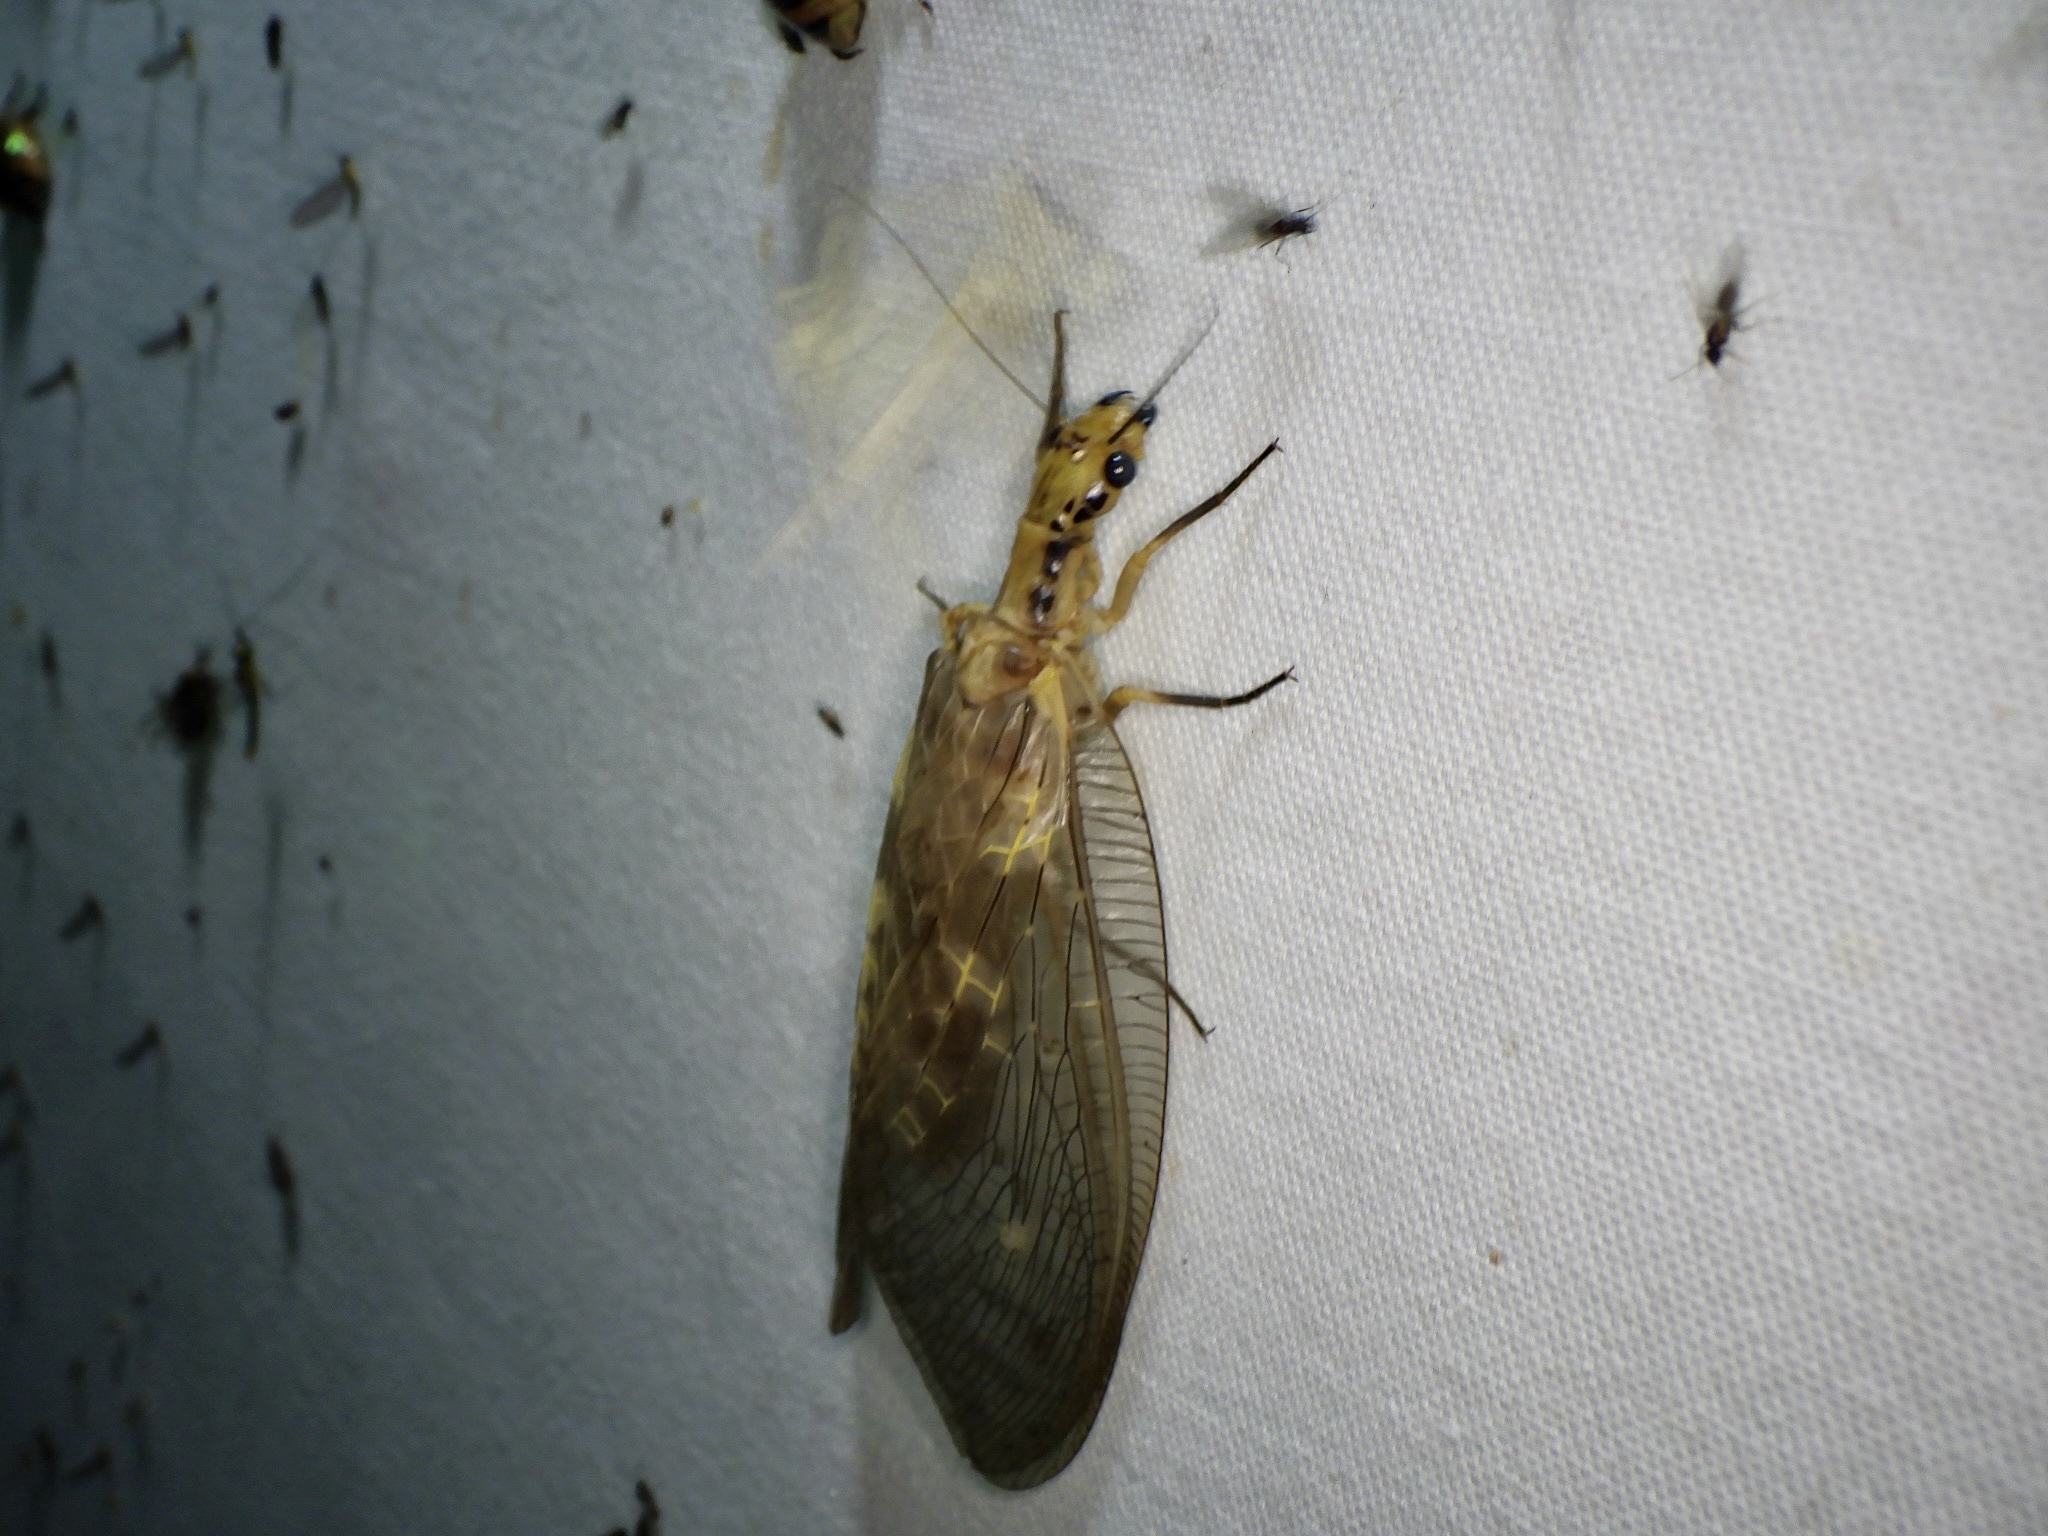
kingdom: Animalia
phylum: Arthropoda
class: Insecta
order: Megaloptera
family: Corydalidae
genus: Protohermes
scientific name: Protohermes grandis
